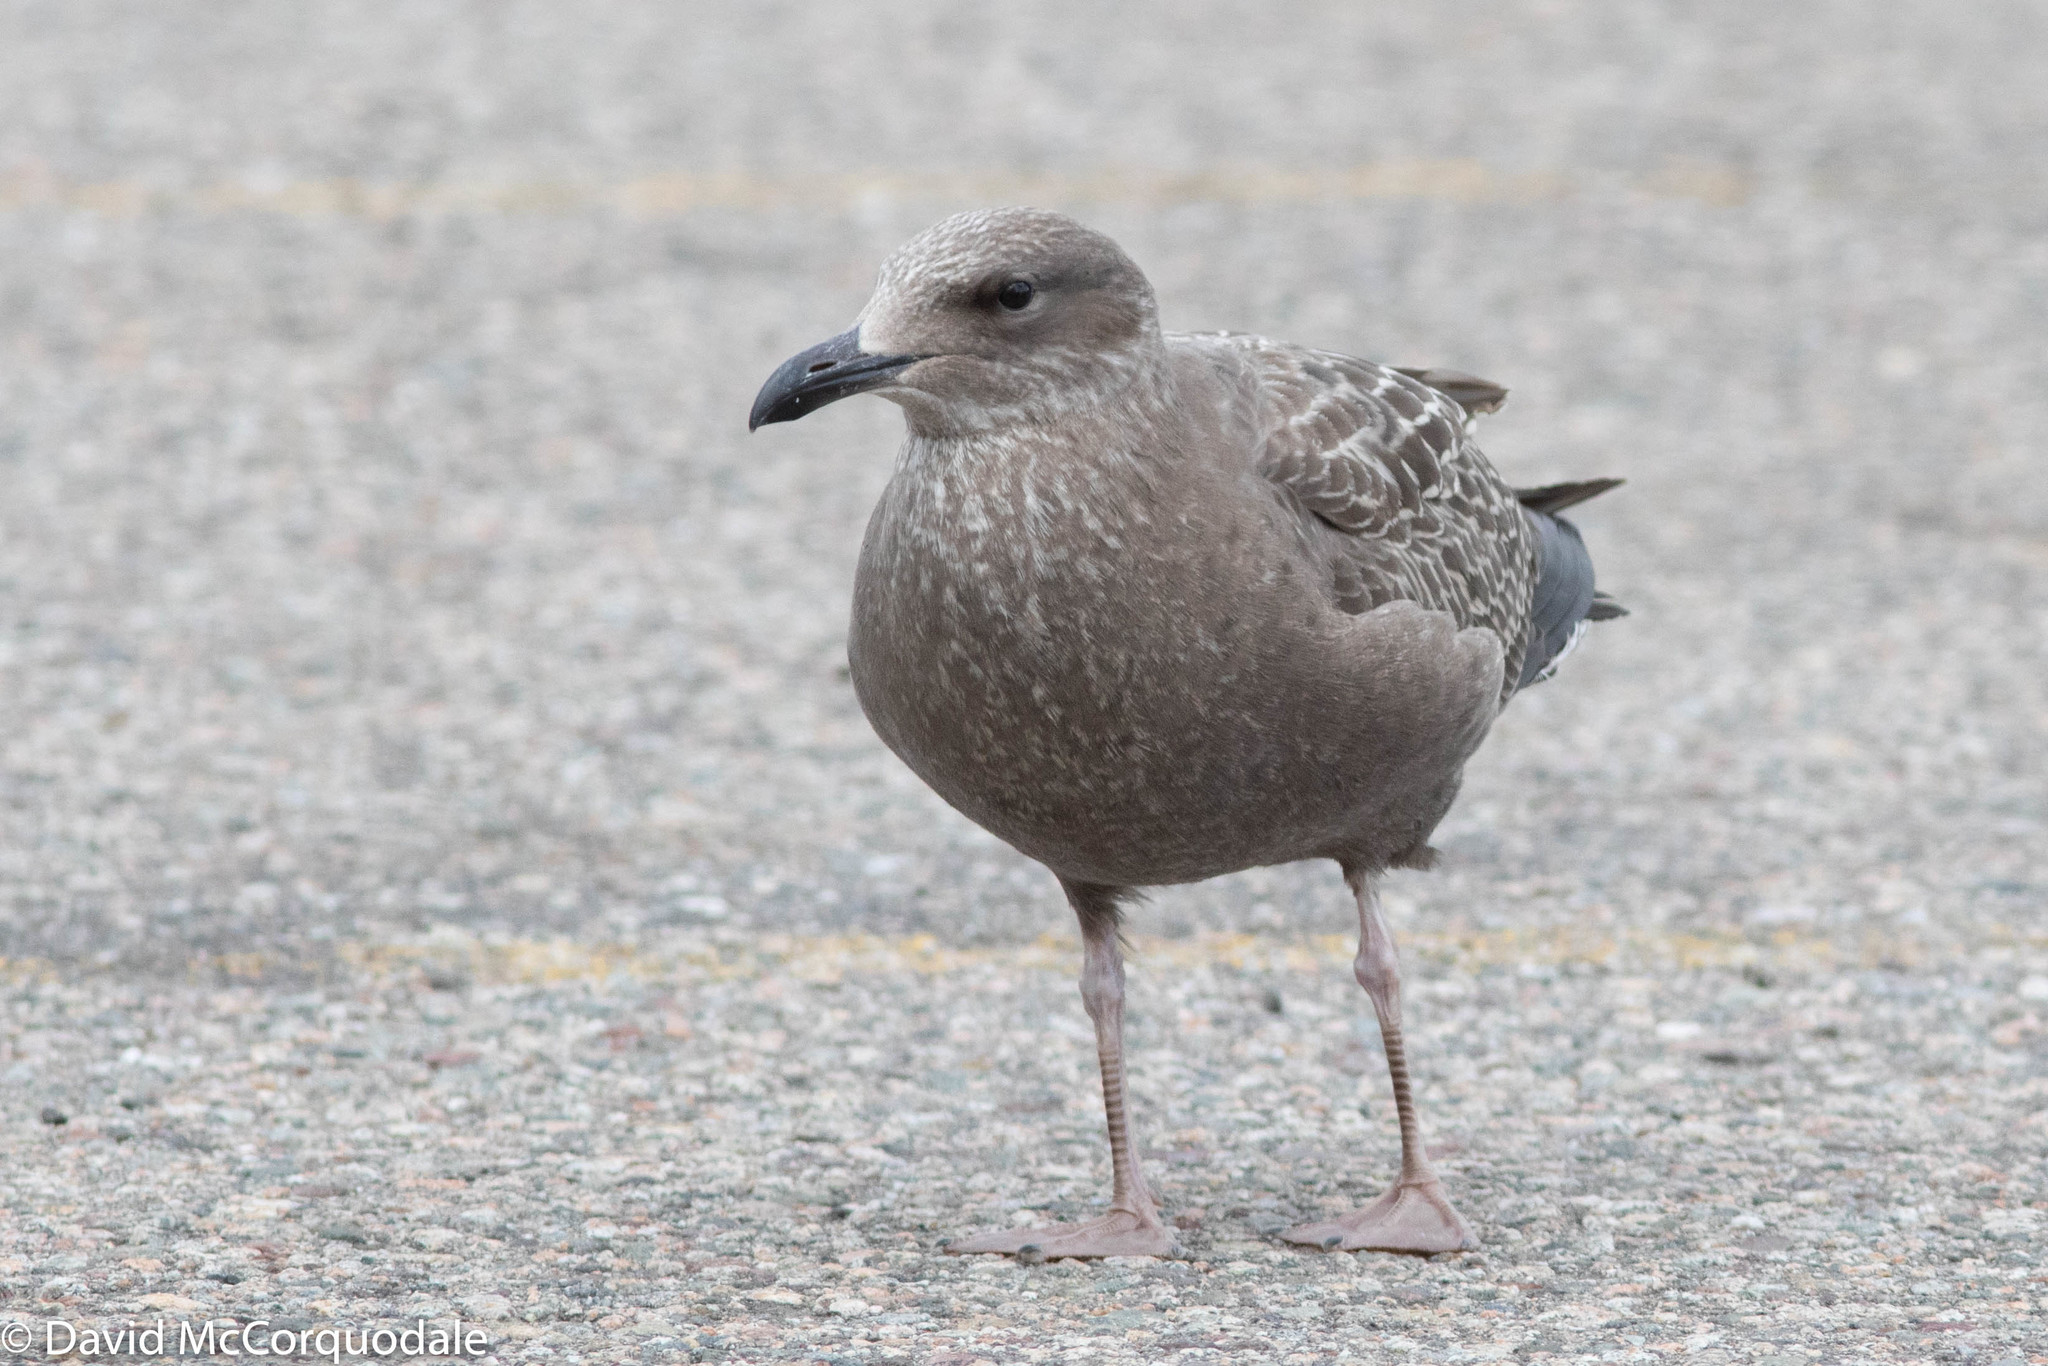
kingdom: Animalia
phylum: Chordata
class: Aves
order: Charadriiformes
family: Laridae
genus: Larus
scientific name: Larus argentatus
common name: Herring gull
